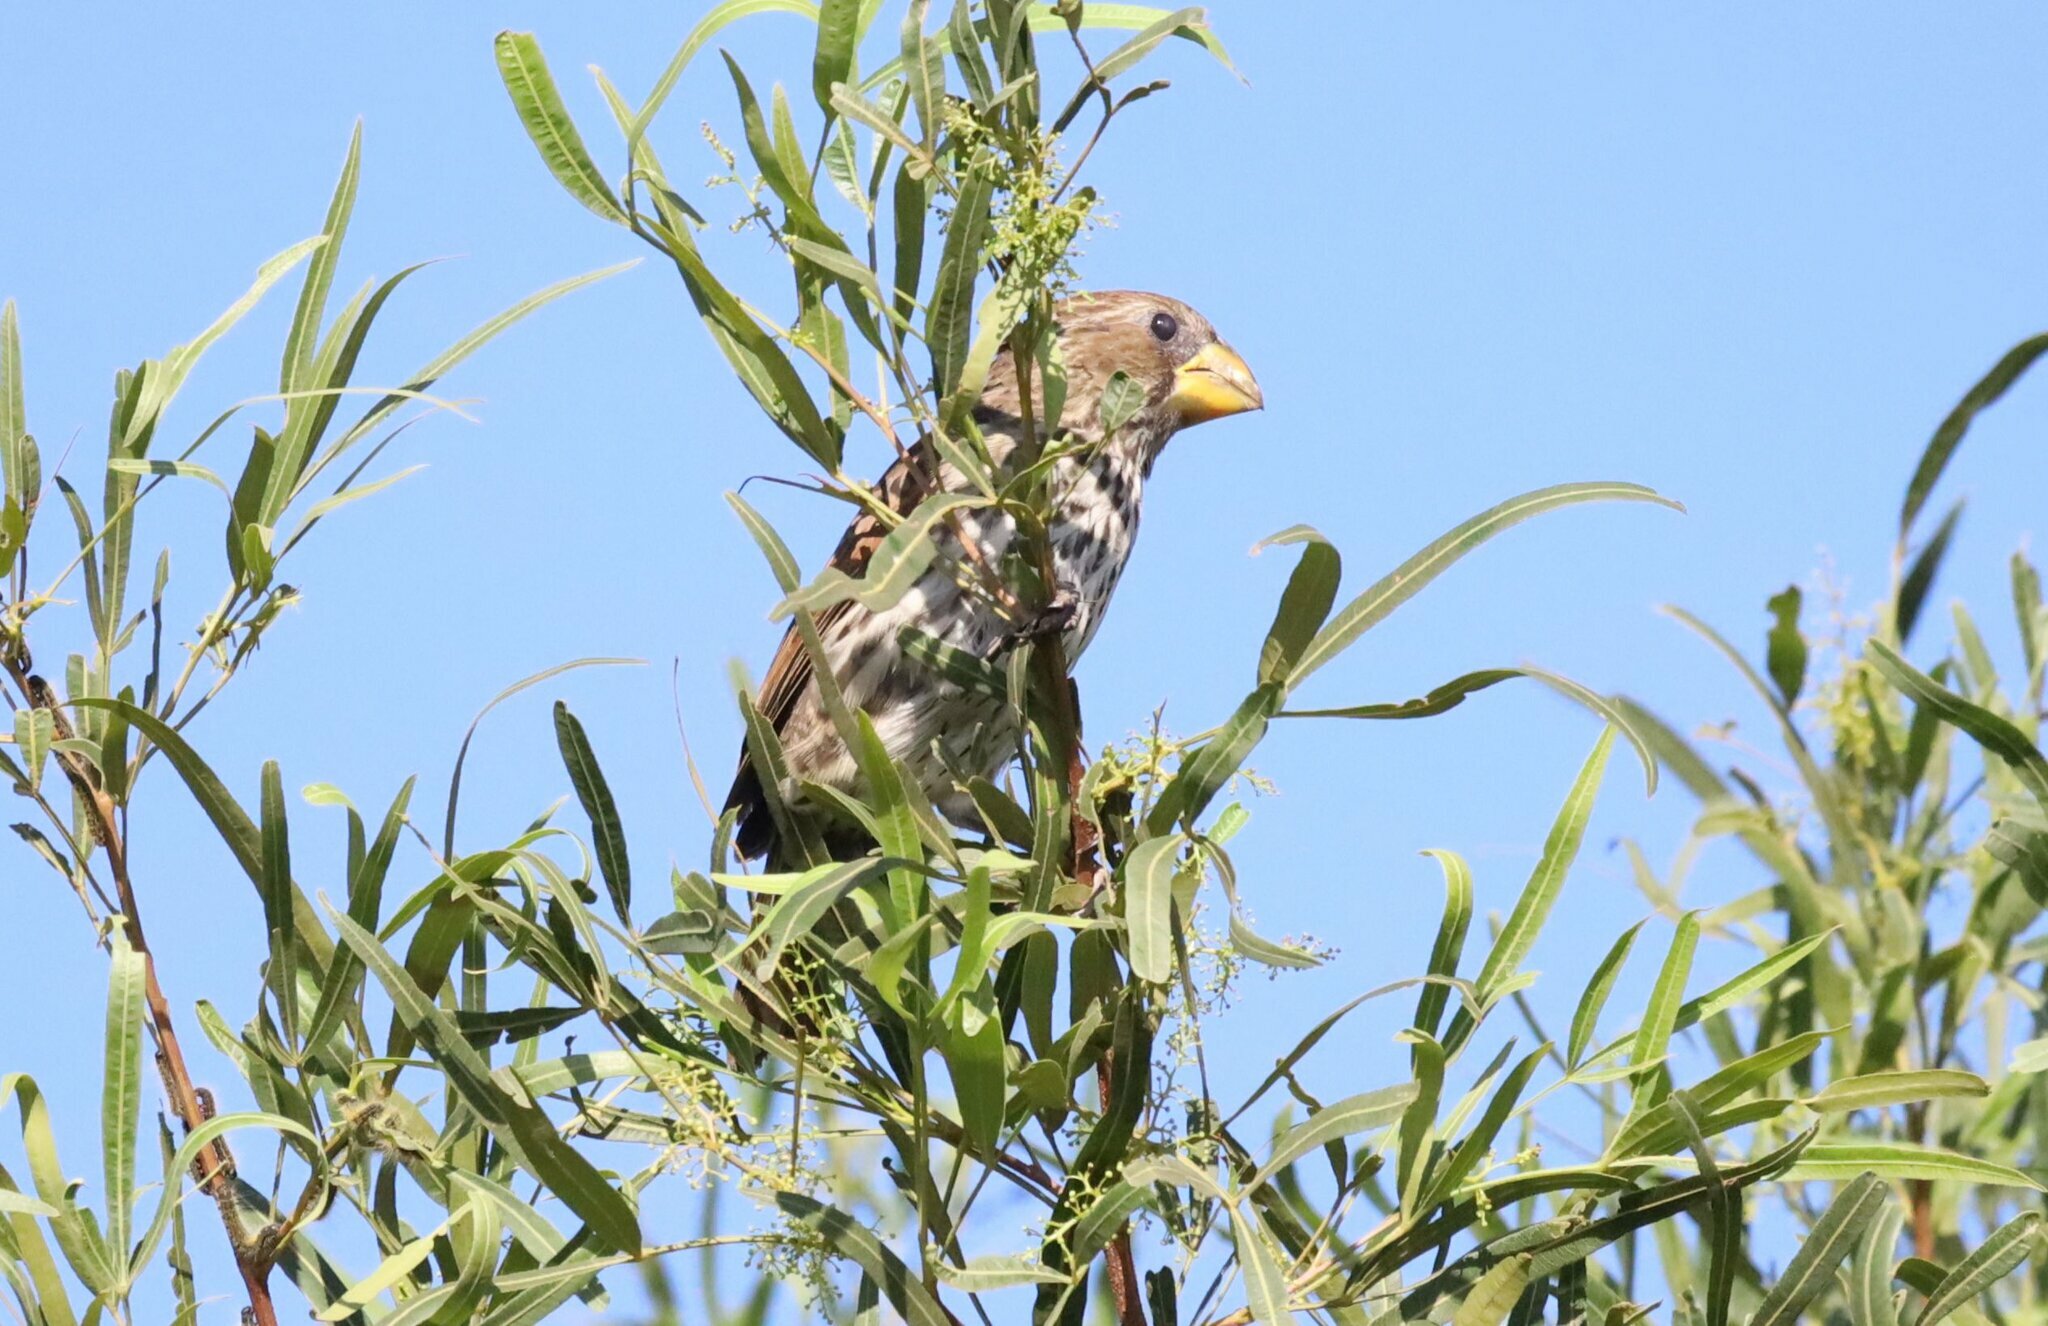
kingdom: Animalia
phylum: Chordata
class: Aves
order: Passeriformes
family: Ploceidae
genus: Amblyospiza
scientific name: Amblyospiza albifrons
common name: Thick-billed weaver
